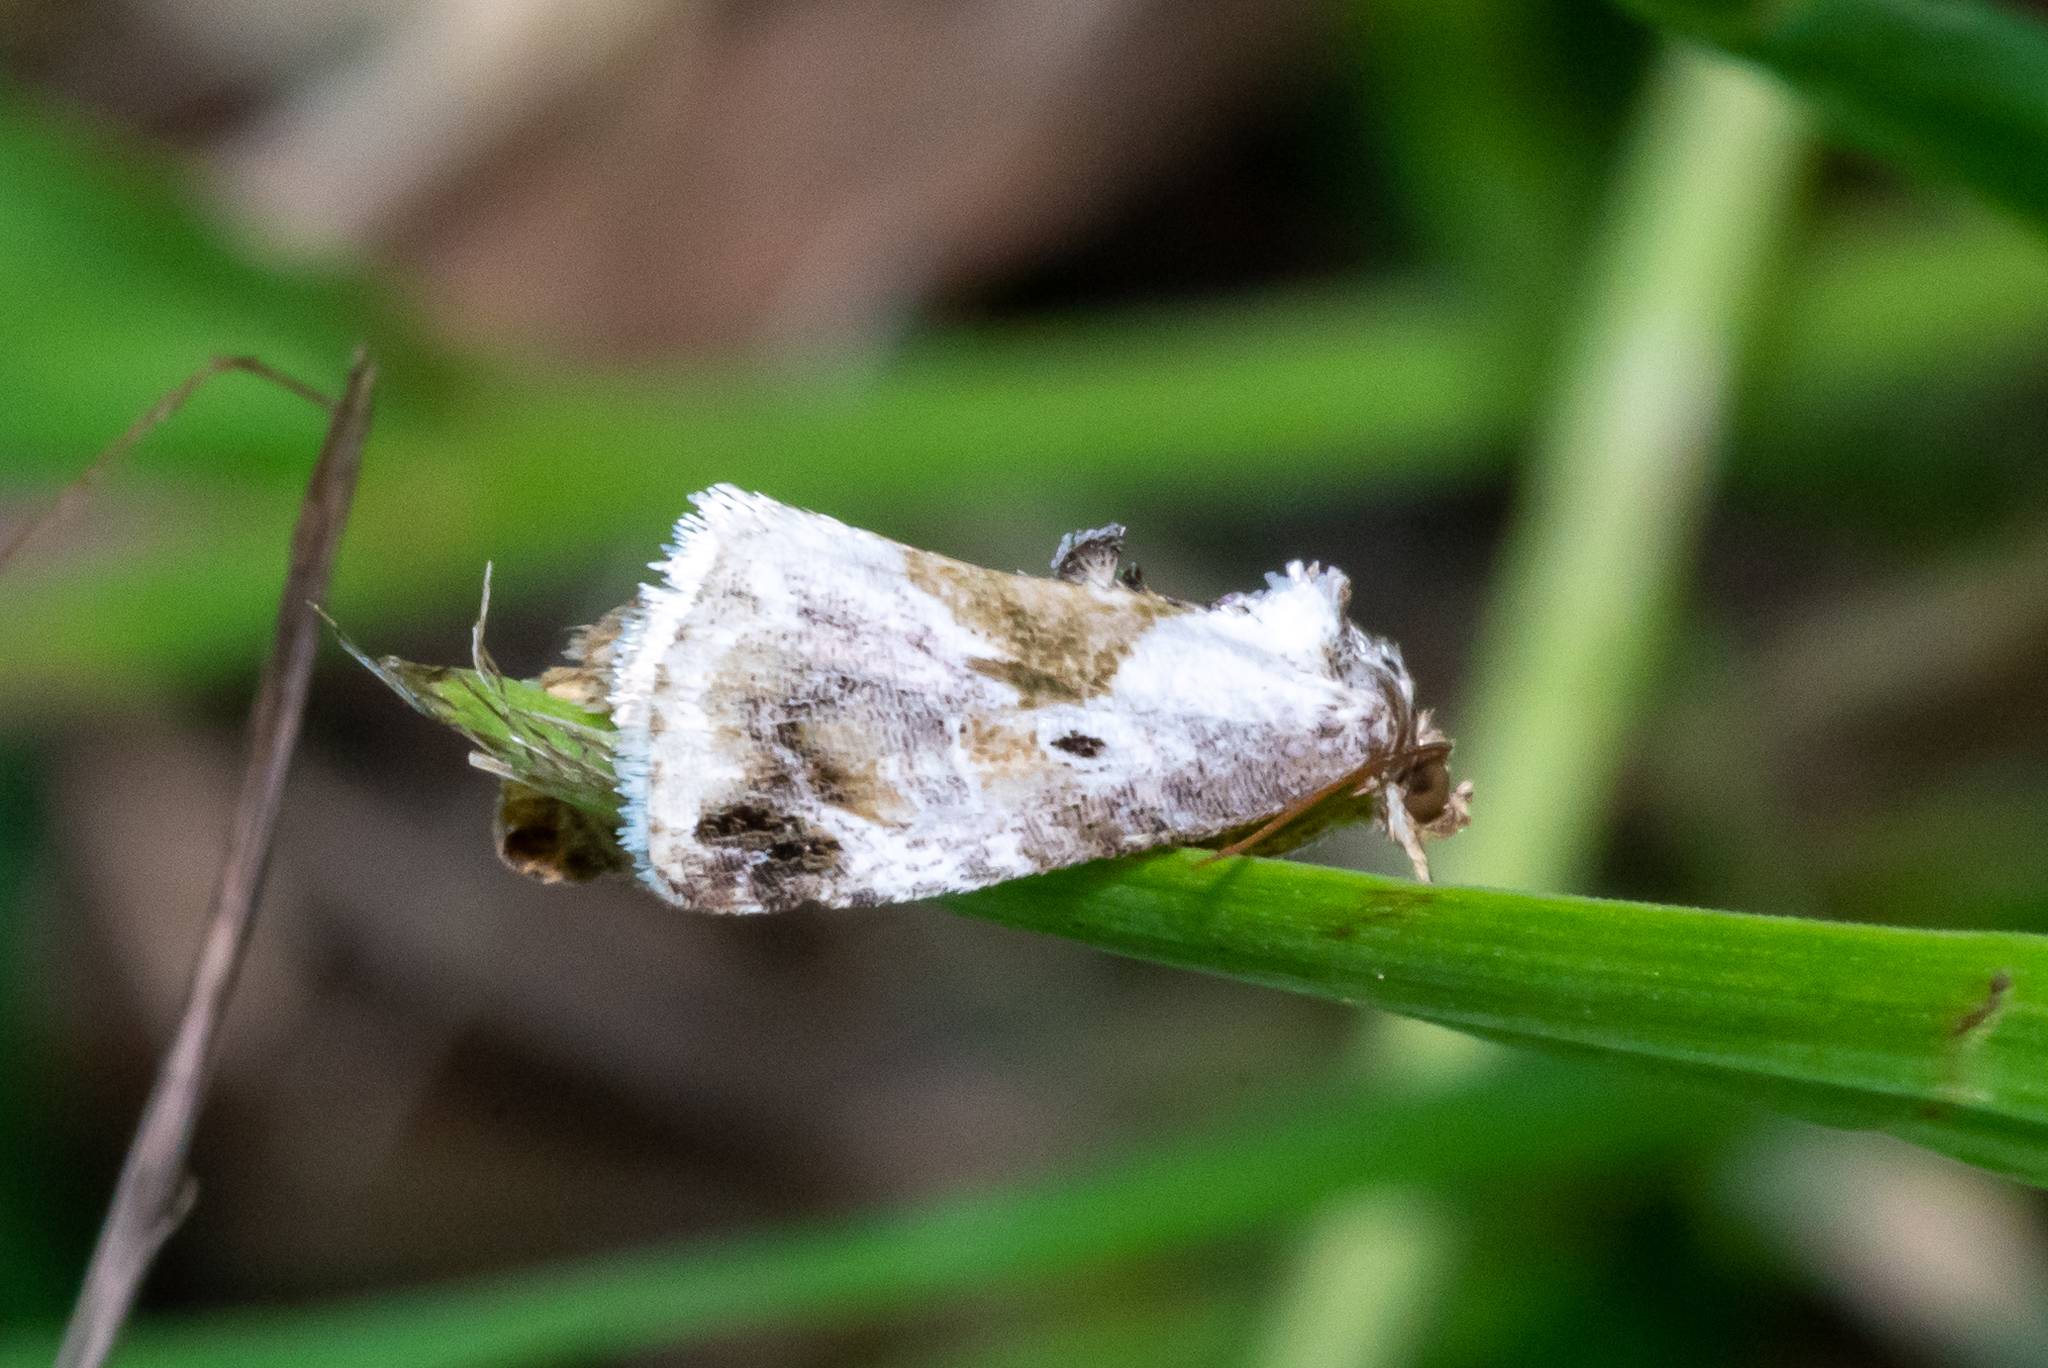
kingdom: Animalia
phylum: Arthropoda
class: Insecta
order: Lepidoptera
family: Noctuidae
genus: Maliattha
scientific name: Maliattha synochitis
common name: Black-dotted glyph
